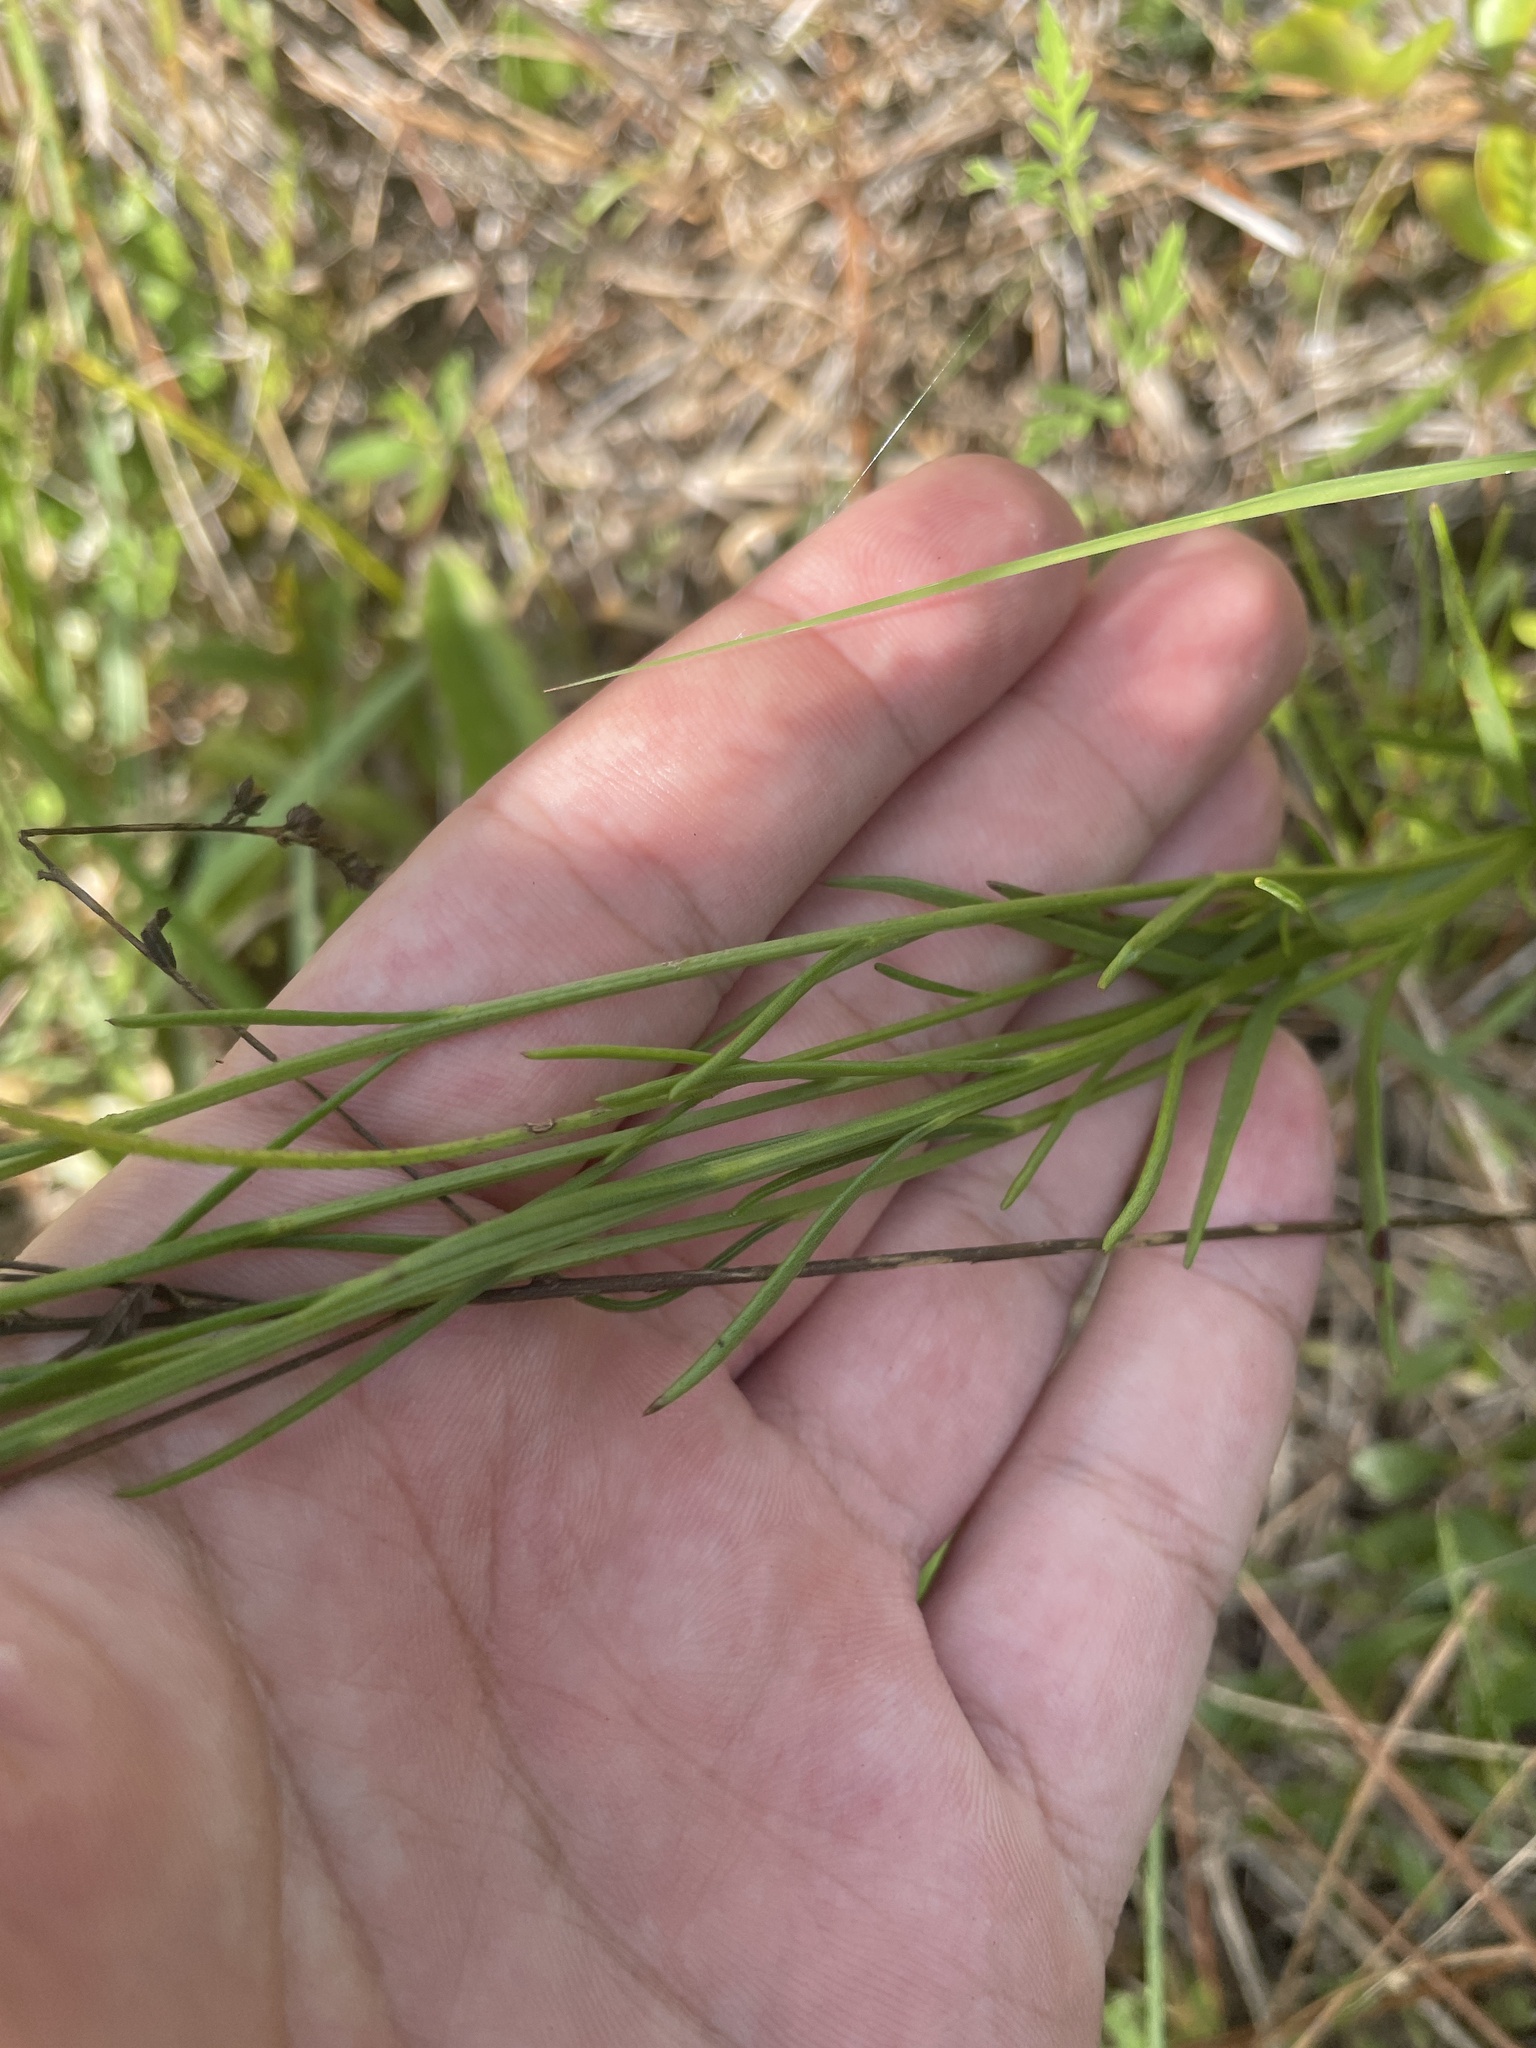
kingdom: Plantae
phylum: Tracheophyta
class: Magnoliopsida
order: Asterales
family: Asteraceae
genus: Marshallia
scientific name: Marshallia graminifolia
